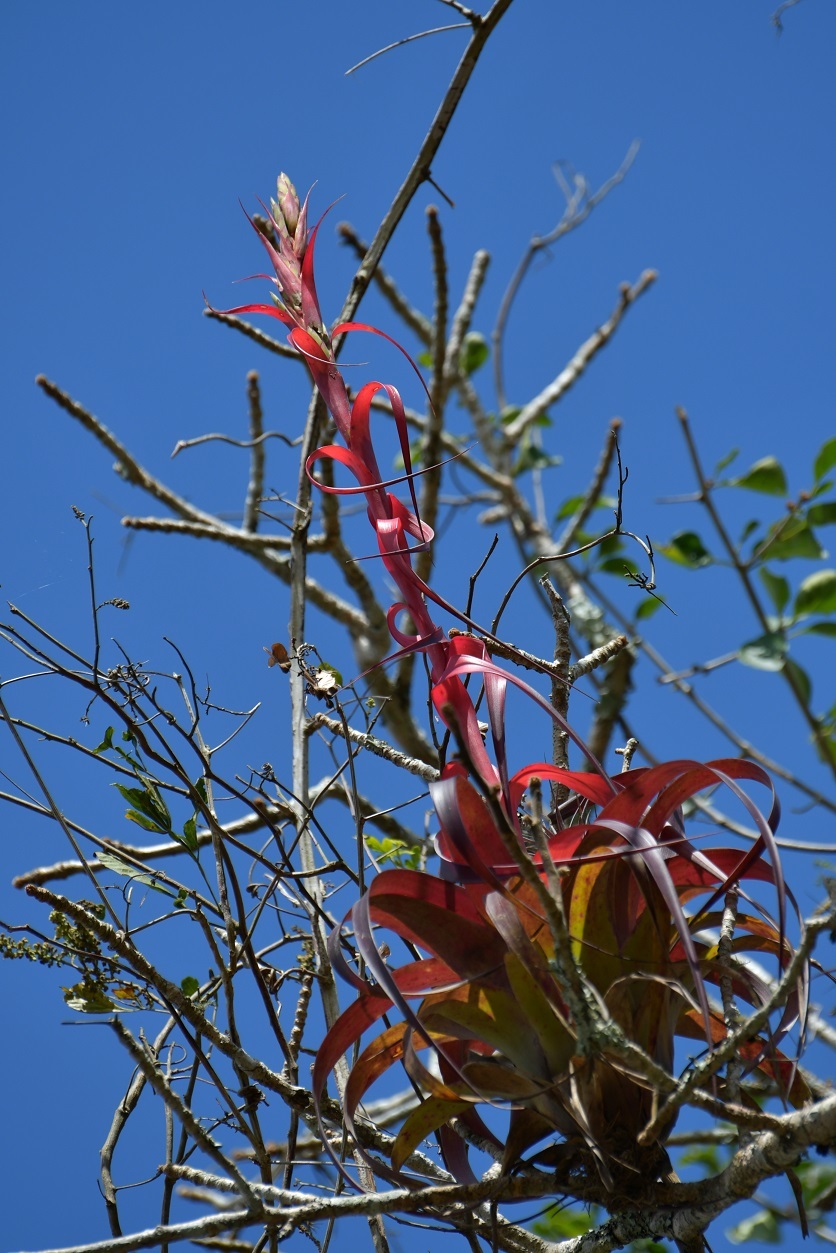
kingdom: Plantae
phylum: Tracheophyta
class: Liliopsida
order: Poales
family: Bromeliaceae
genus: Tillandsia
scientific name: Tillandsia belloensis
